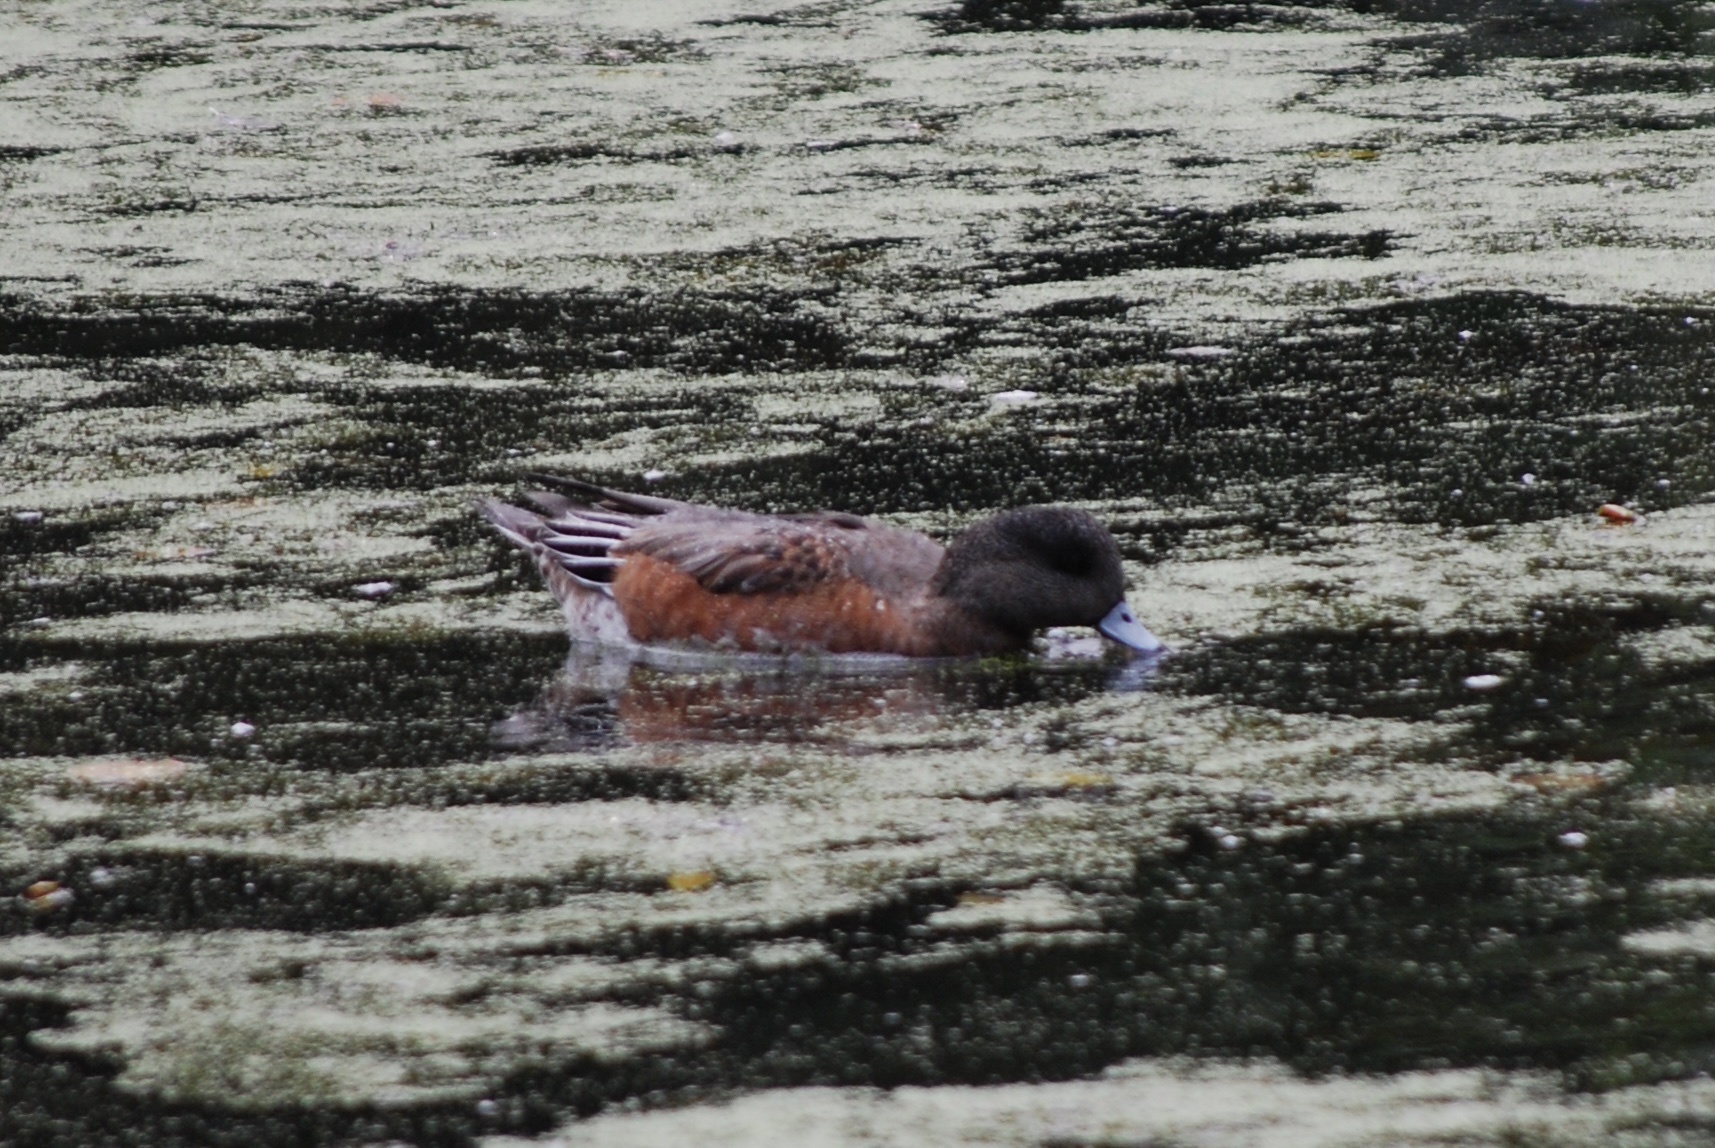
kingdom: Animalia
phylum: Chordata
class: Aves
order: Anseriformes
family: Anatidae
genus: Mareca
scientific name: Mareca americana
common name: American wigeon
